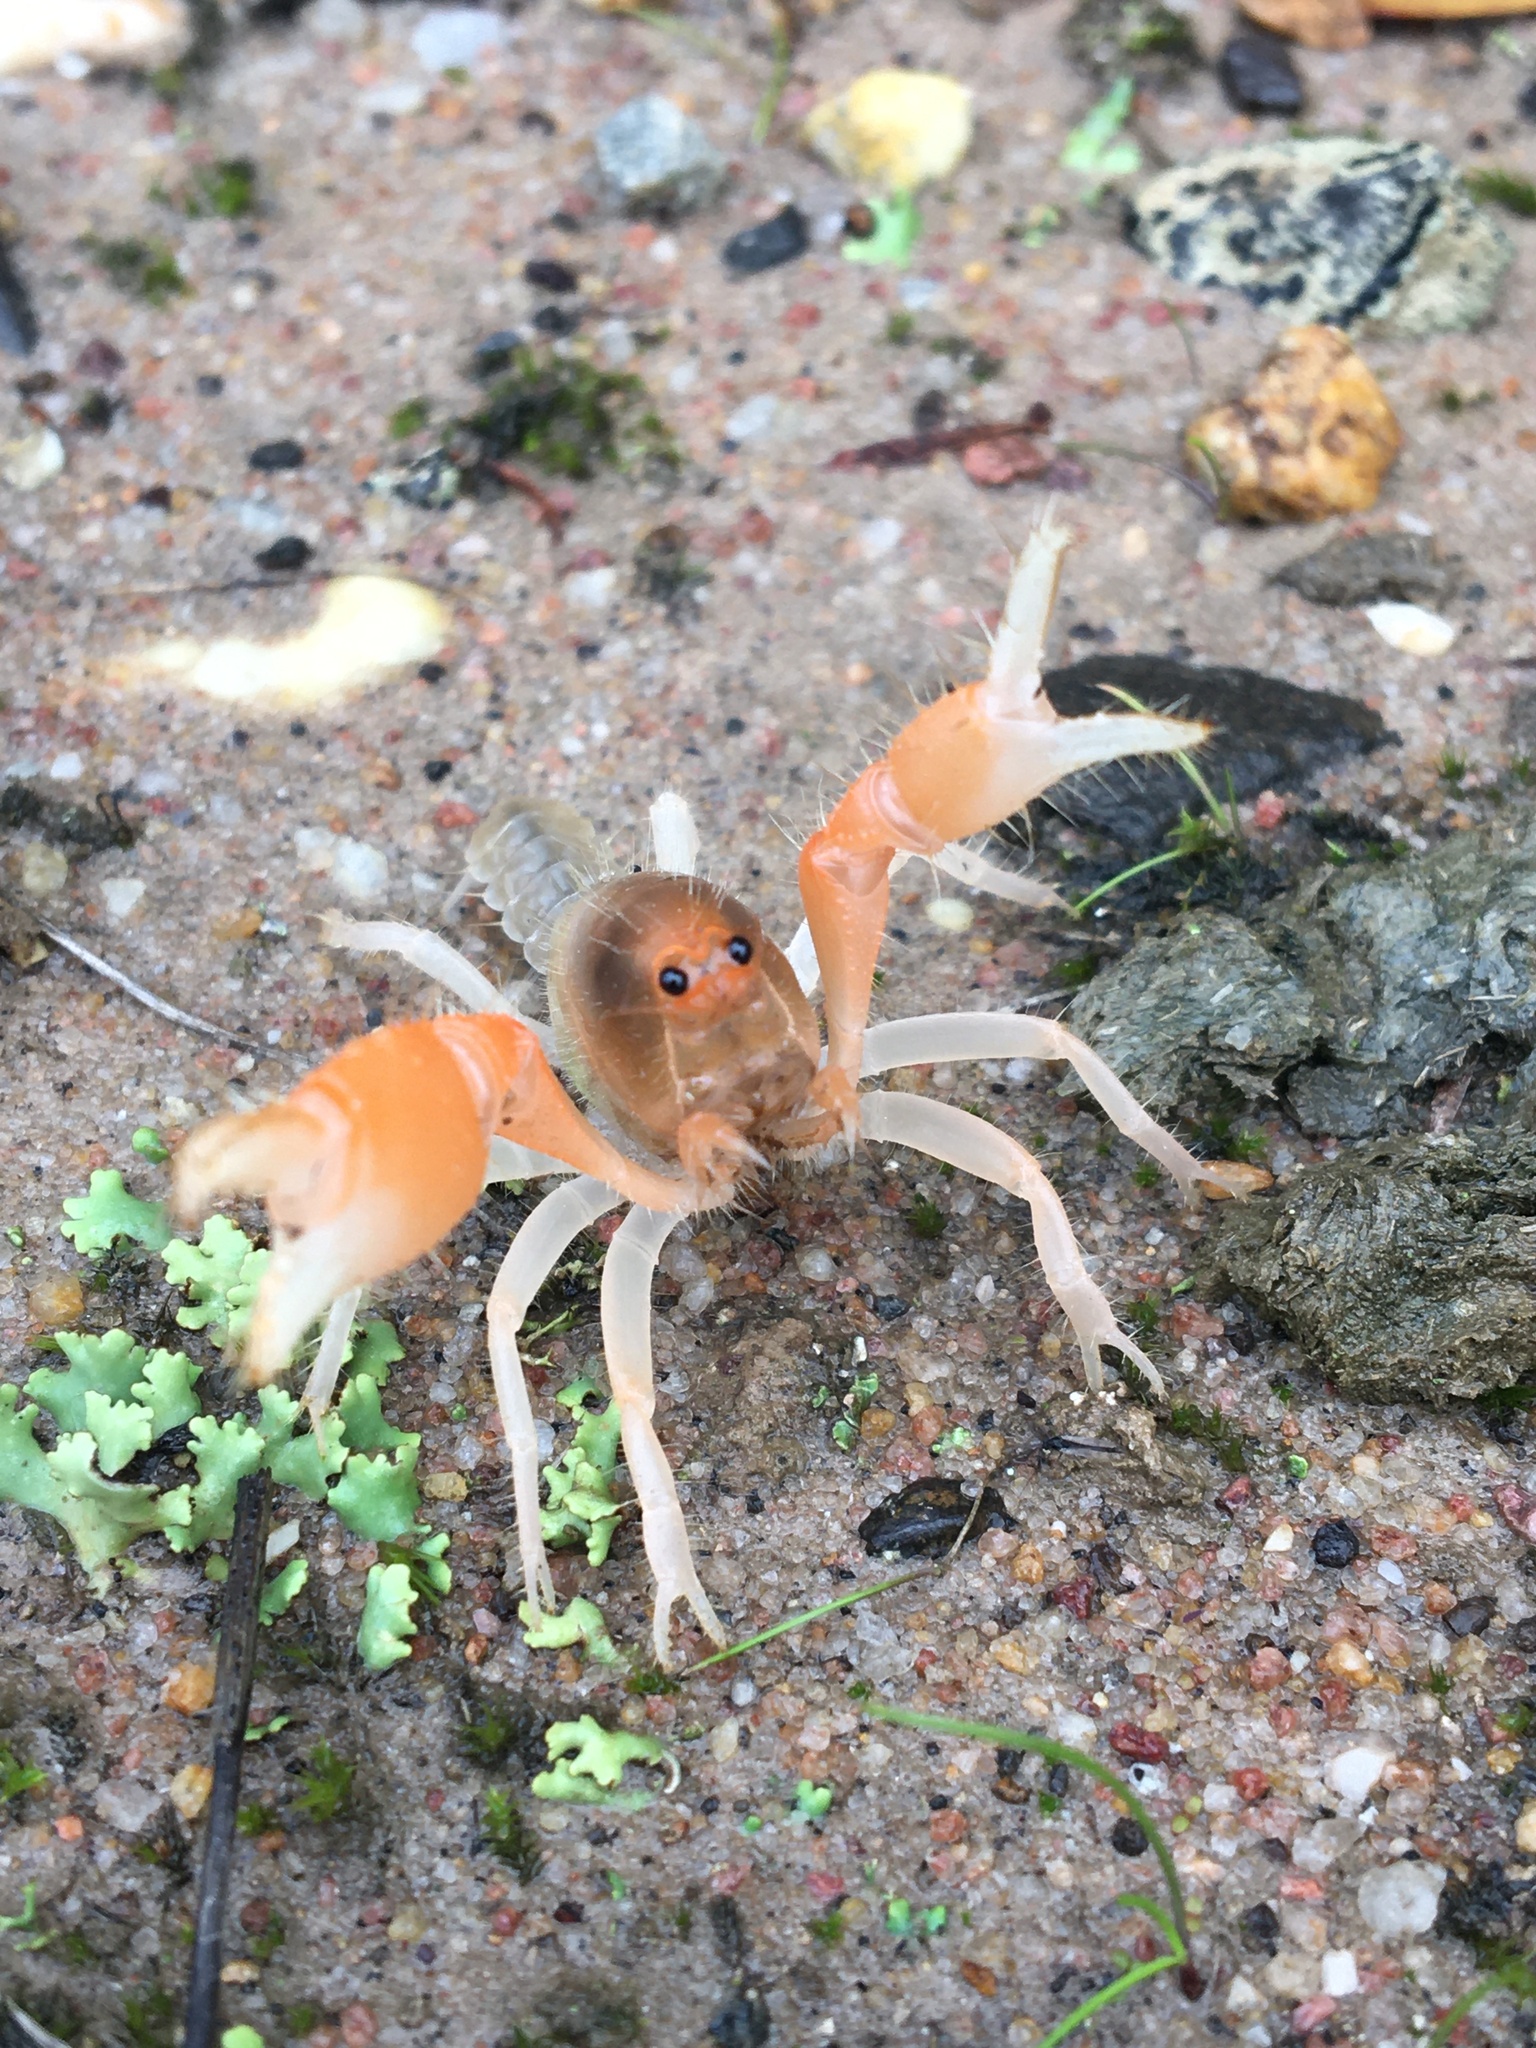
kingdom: Animalia
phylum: Arthropoda
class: Malacostraca
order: Decapoda
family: Parastacidae
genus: Engaeus
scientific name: Engaeus hemicirratulus
